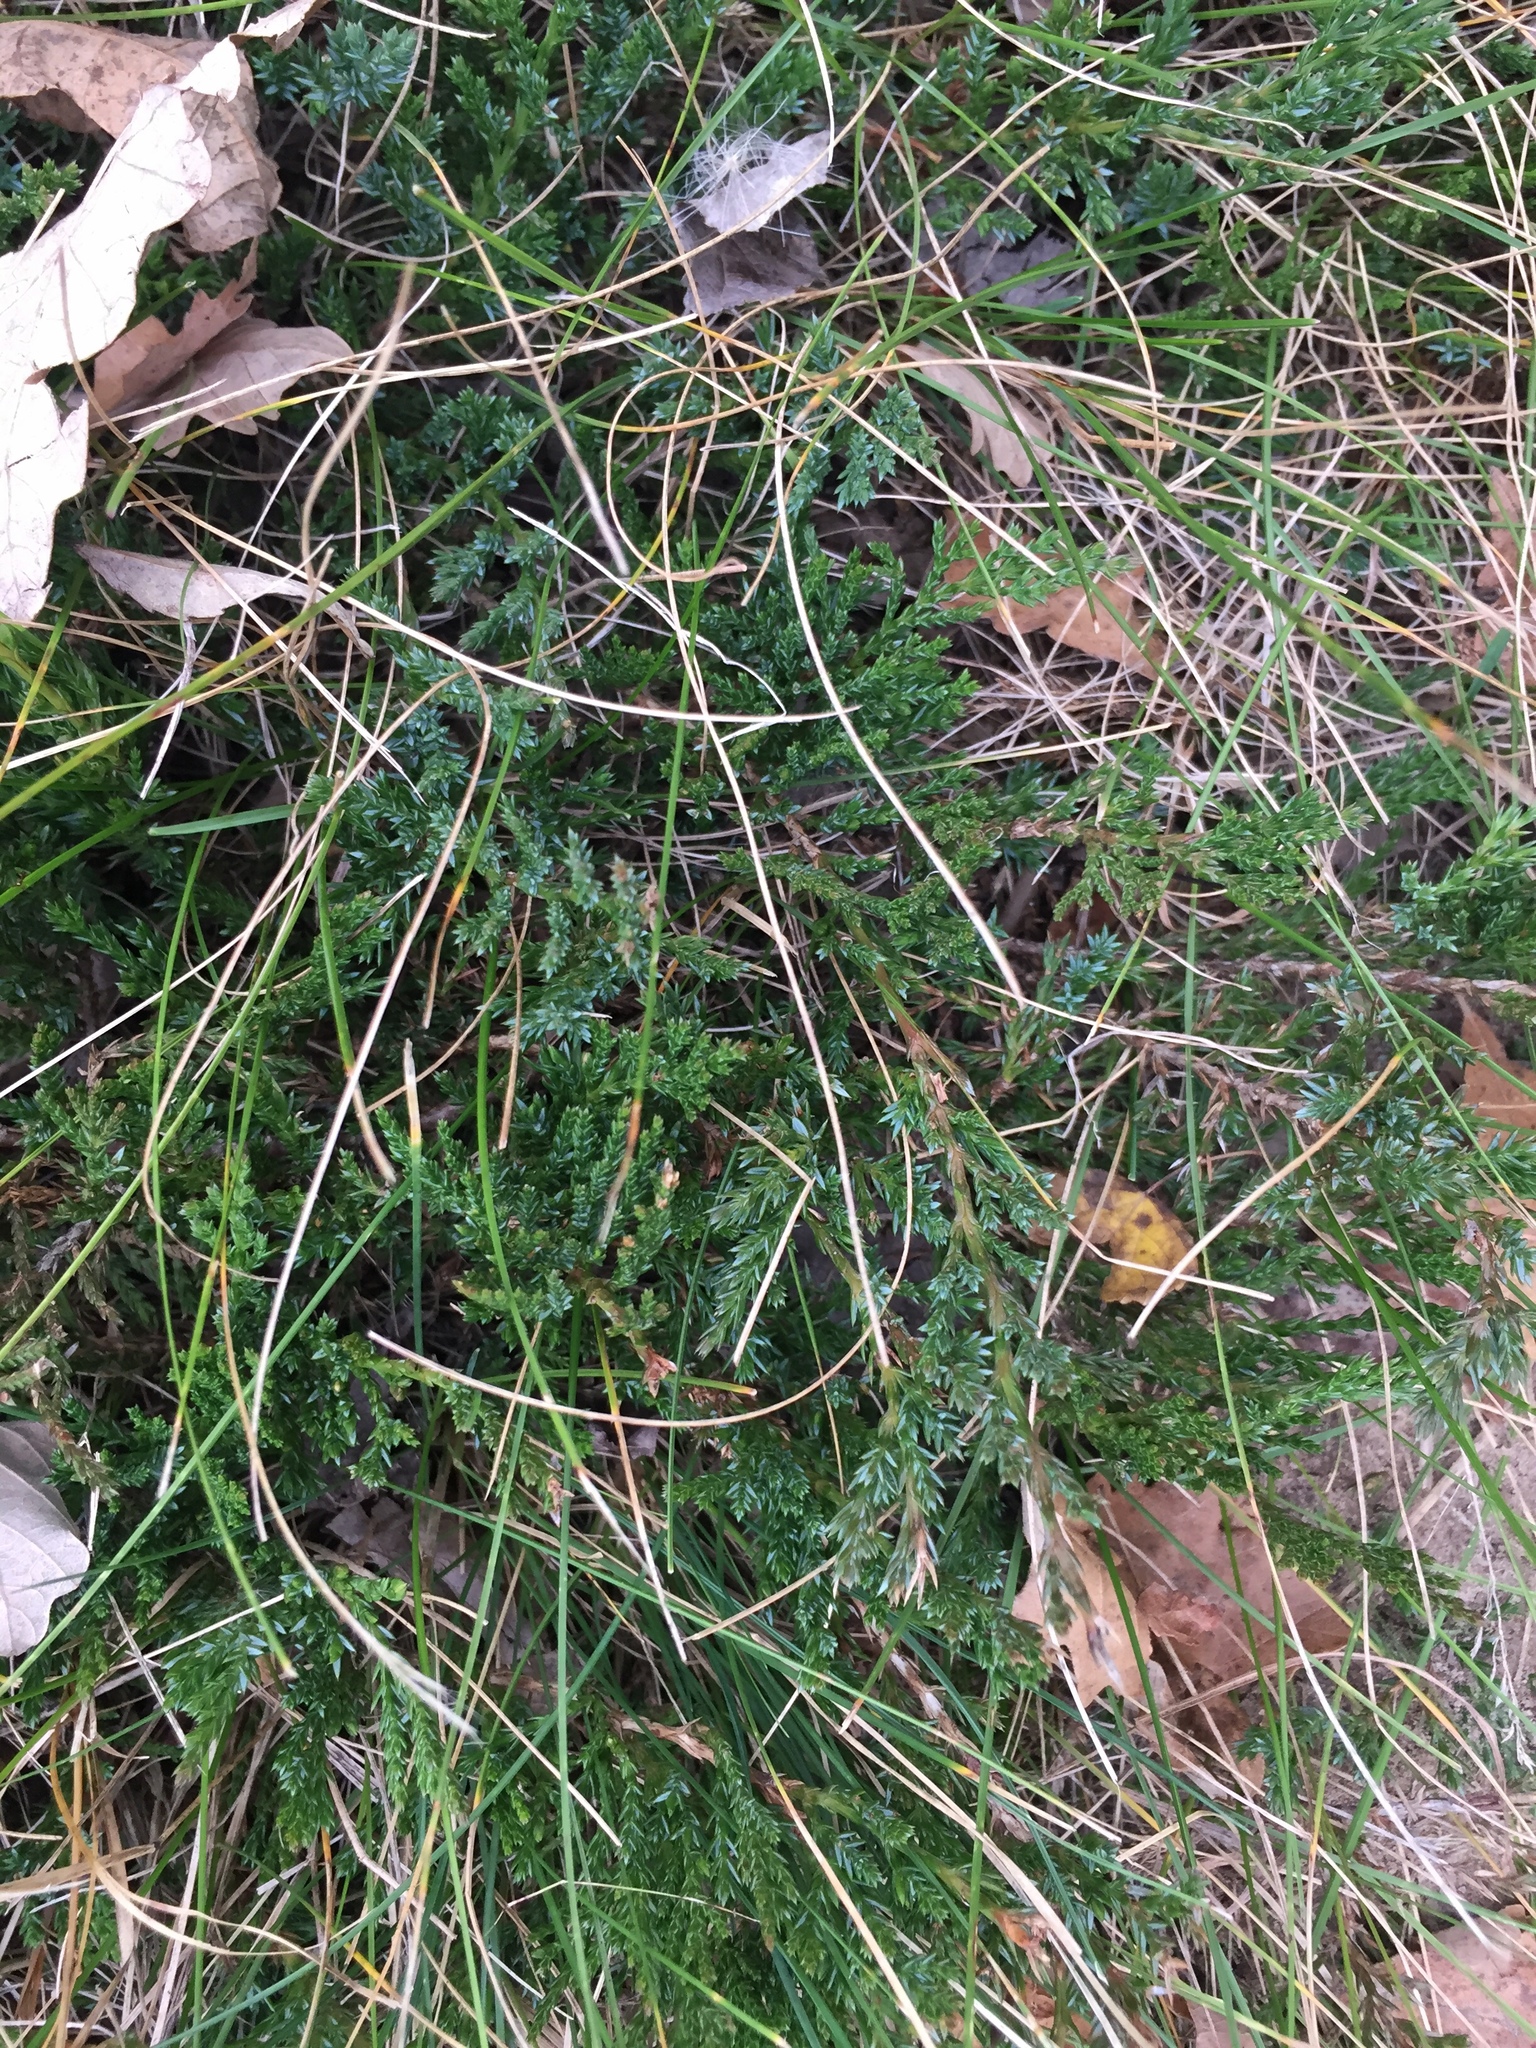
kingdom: Plantae
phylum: Tracheophyta
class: Pinopsida
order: Pinales
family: Cupressaceae
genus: Juniperus
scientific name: Juniperus horizontalis
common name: Creeping juniper
